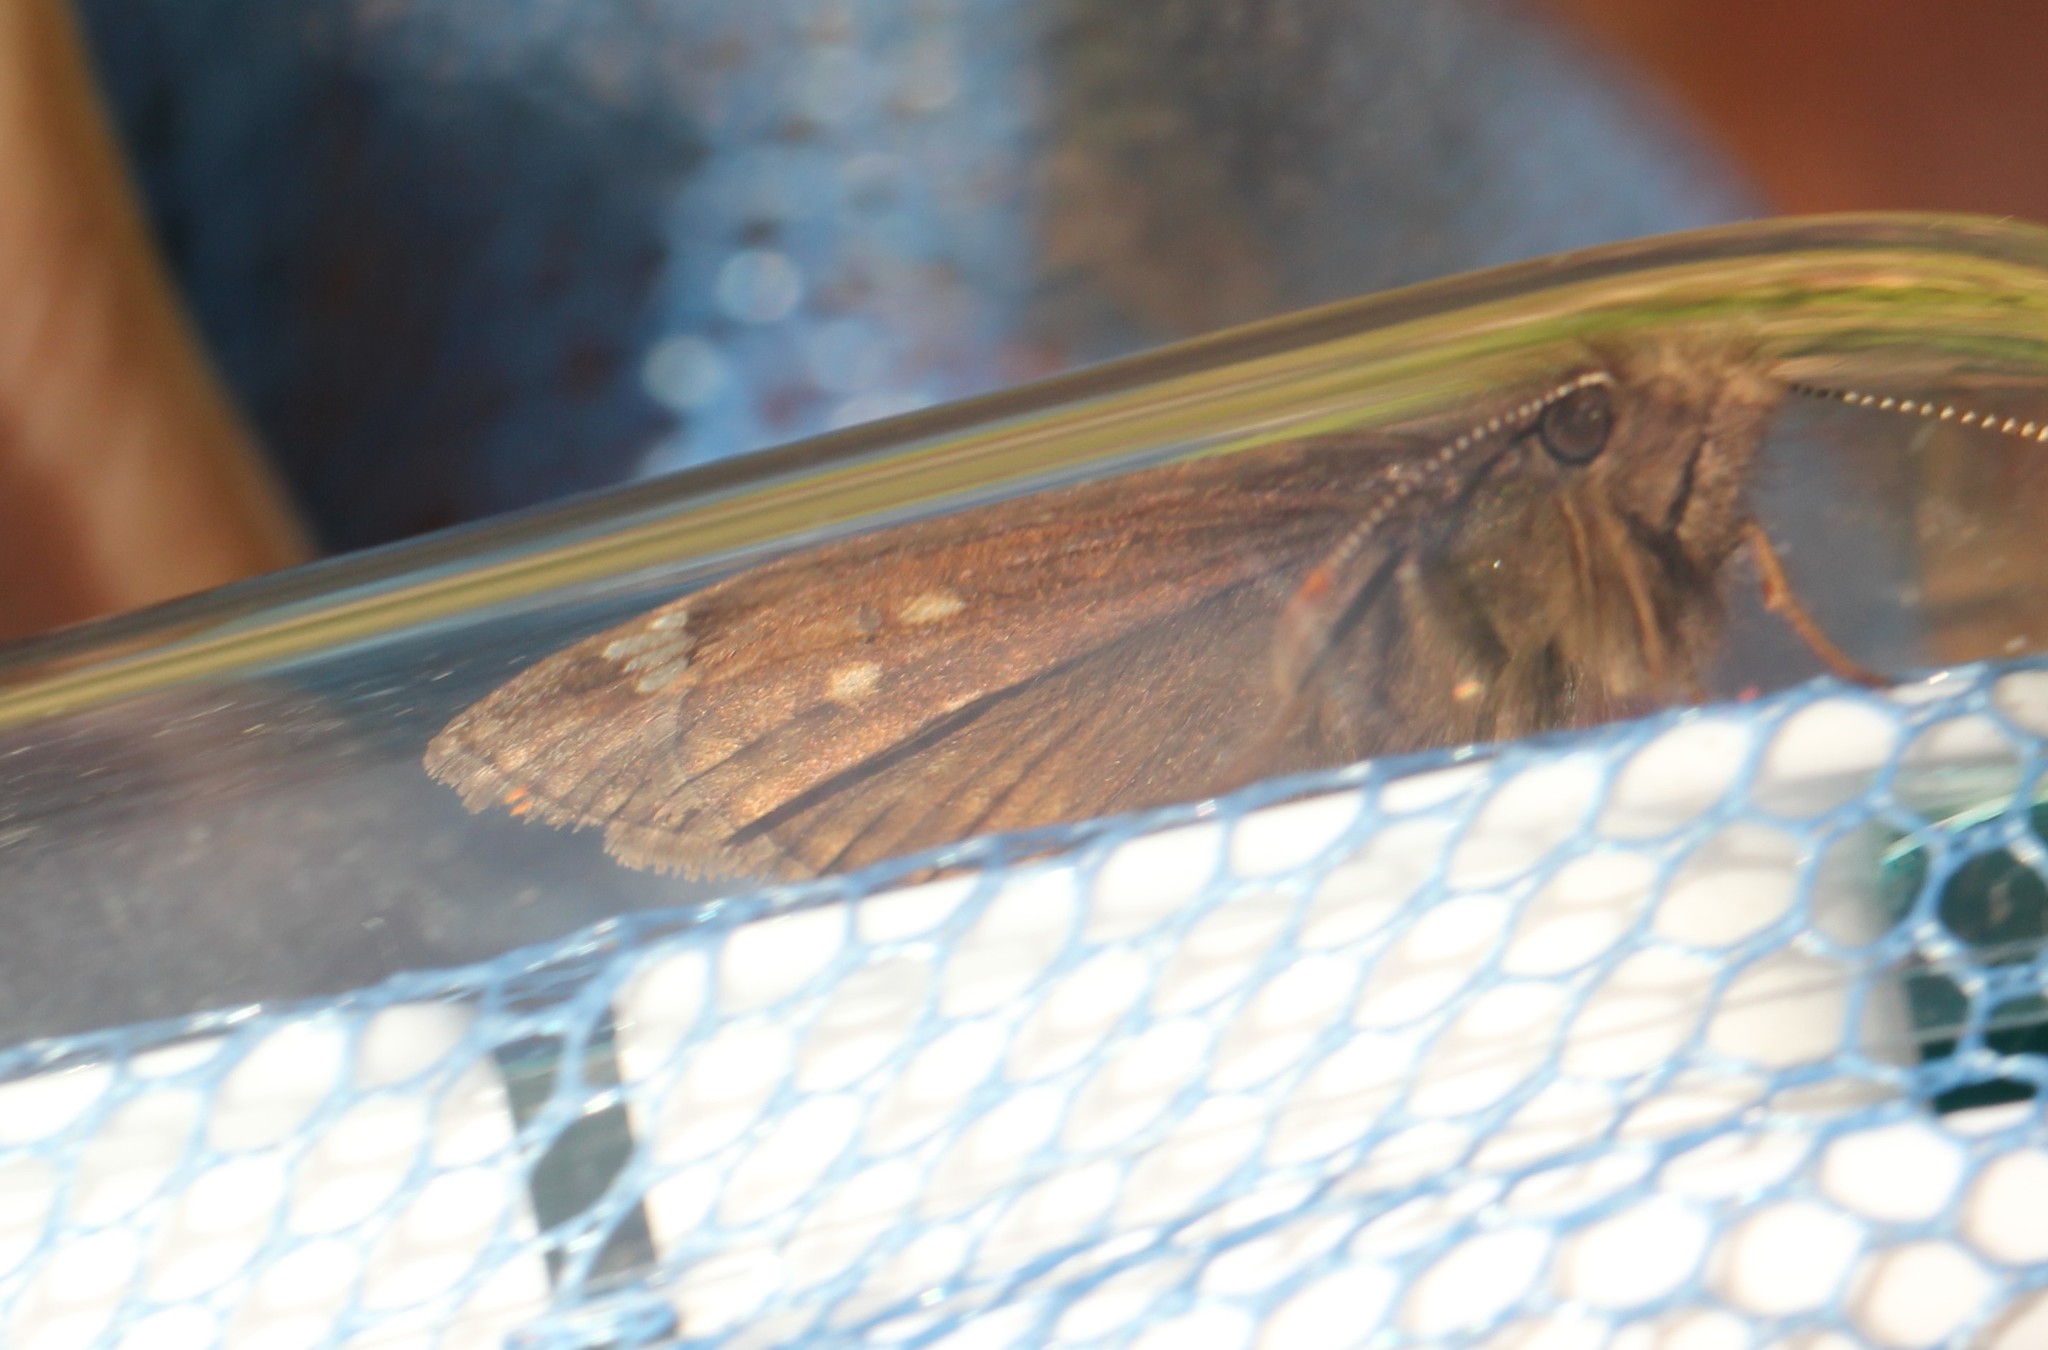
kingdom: Animalia
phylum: Arthropoda
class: Insecta
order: Lepidoptera
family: Hesperiidae
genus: Erynnis
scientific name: Erynnis juvenalis
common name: Juvenal's duskywing
